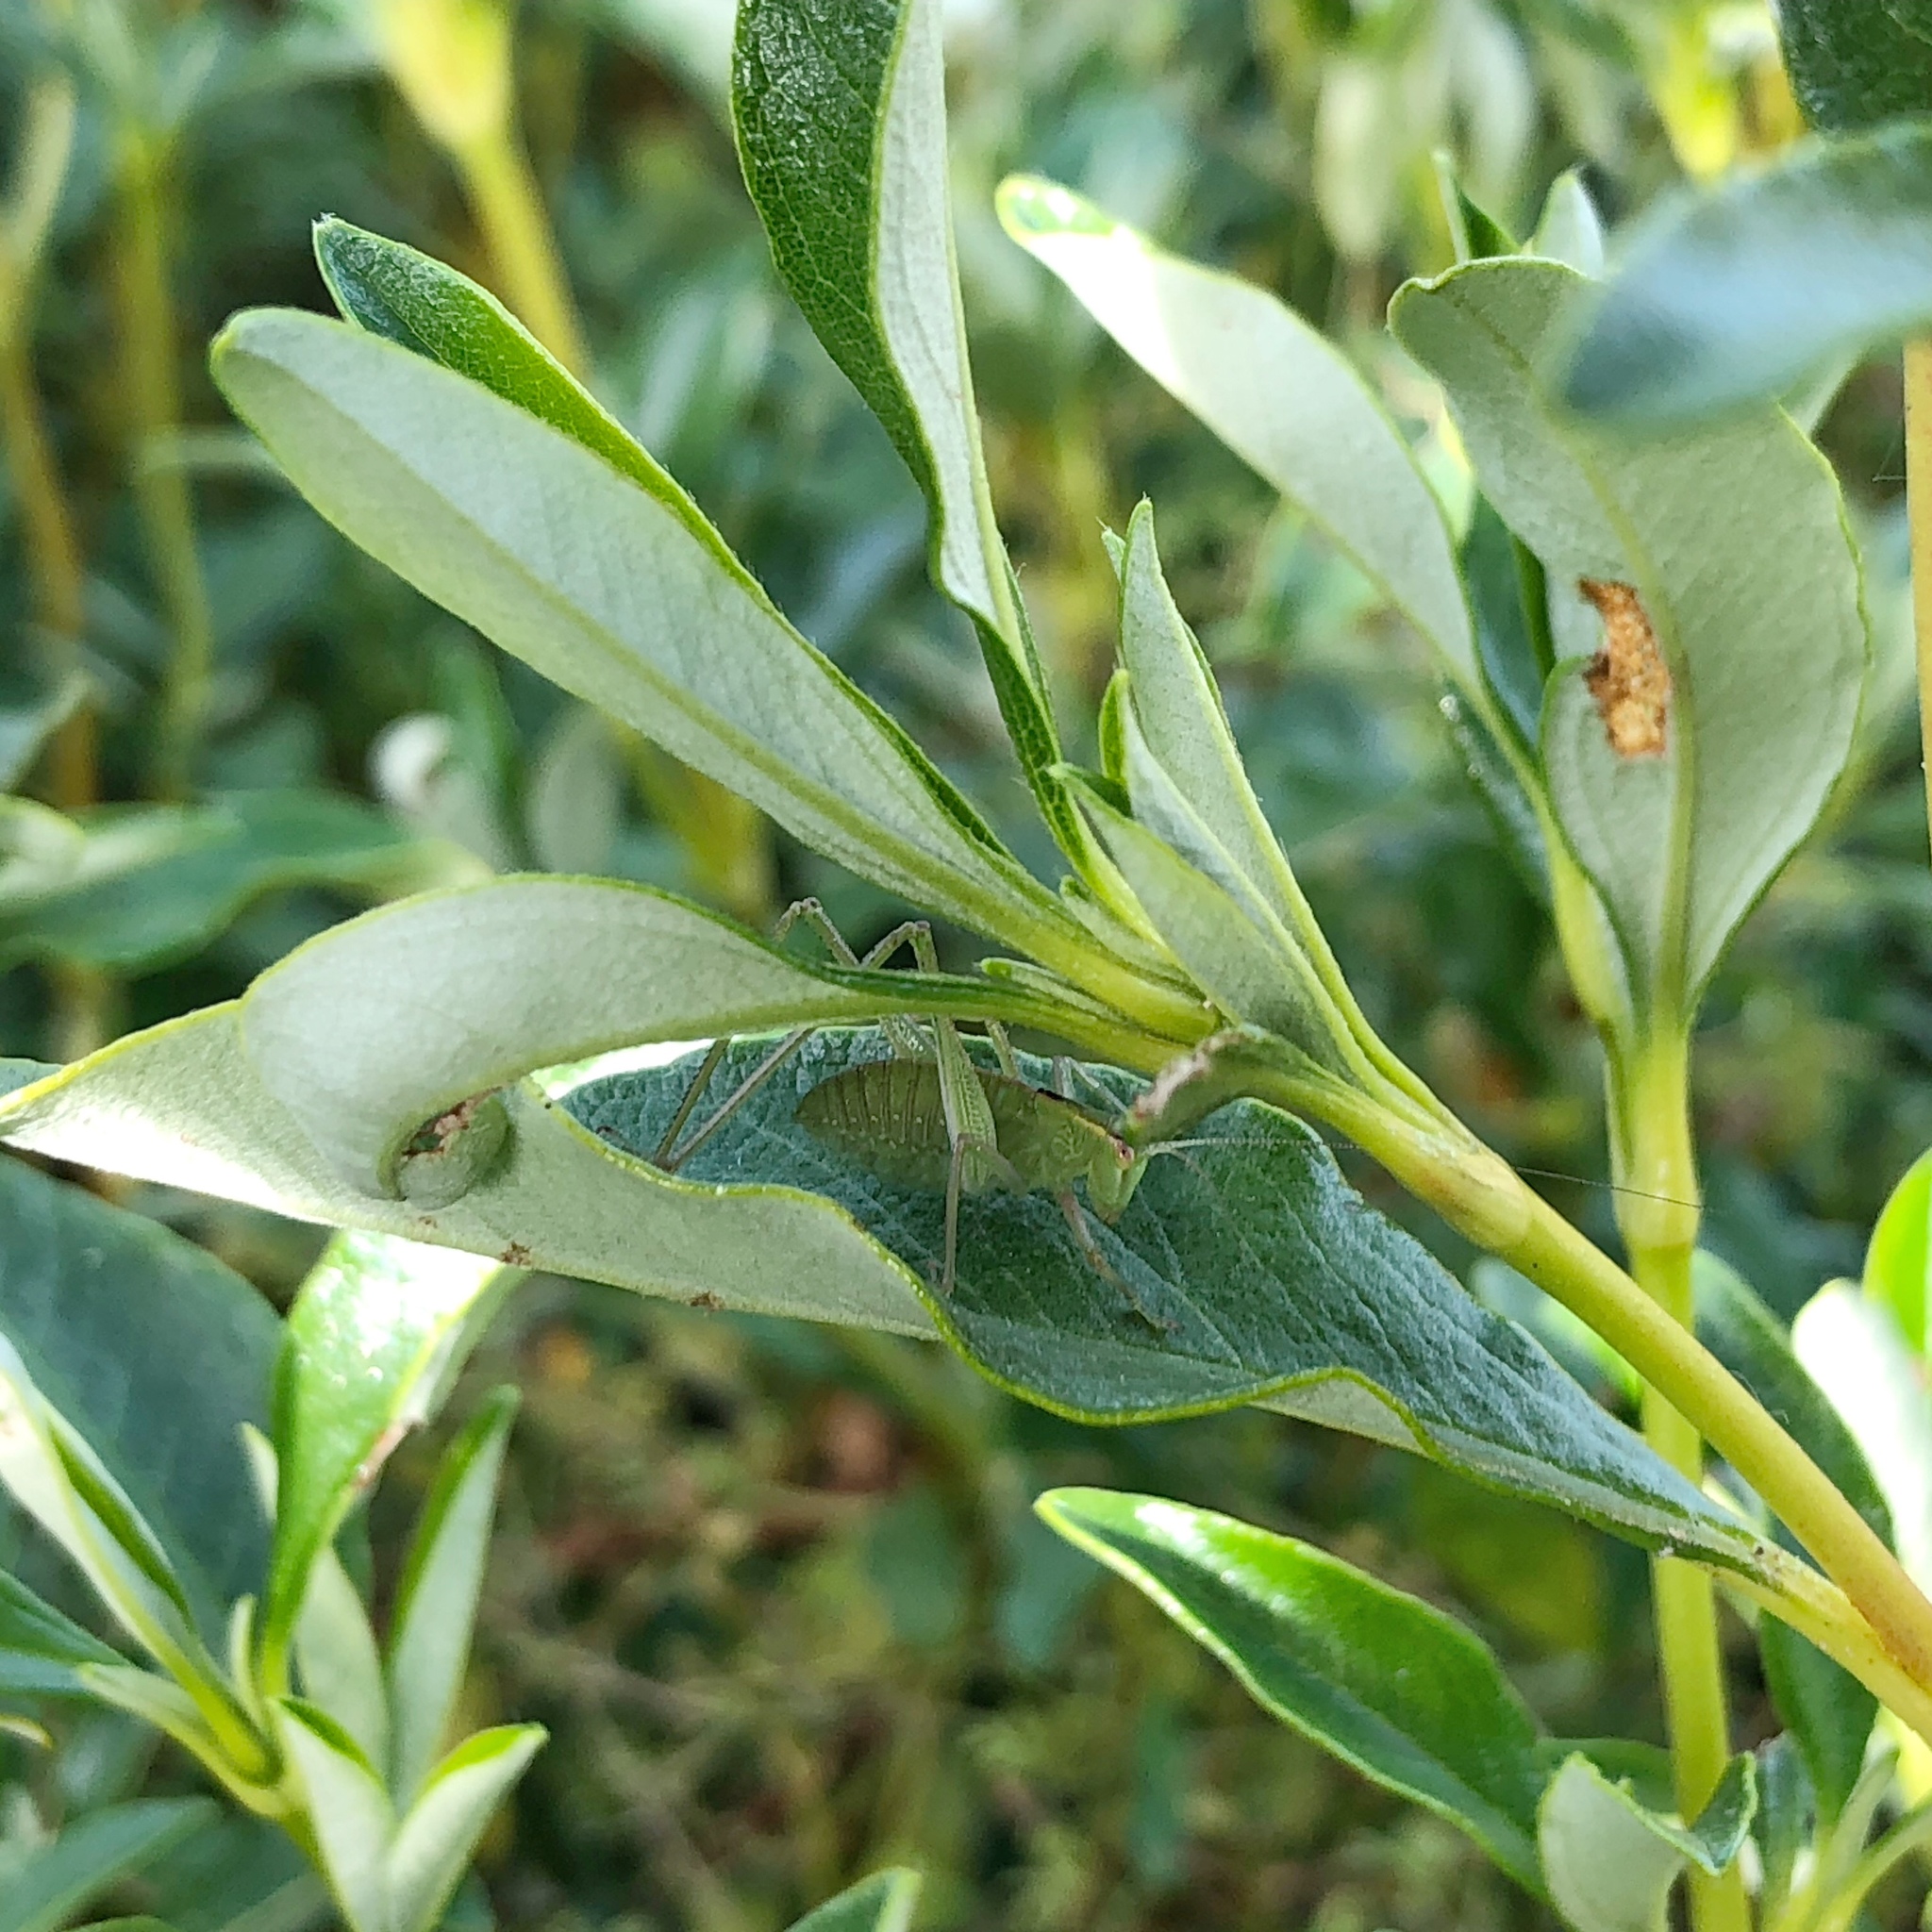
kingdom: Animalia
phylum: Arthropoda
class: Insecta
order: Orthoptera
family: Tettigoniidae
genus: Caedicia
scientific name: Caedicia simplex
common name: Common garden katydid
